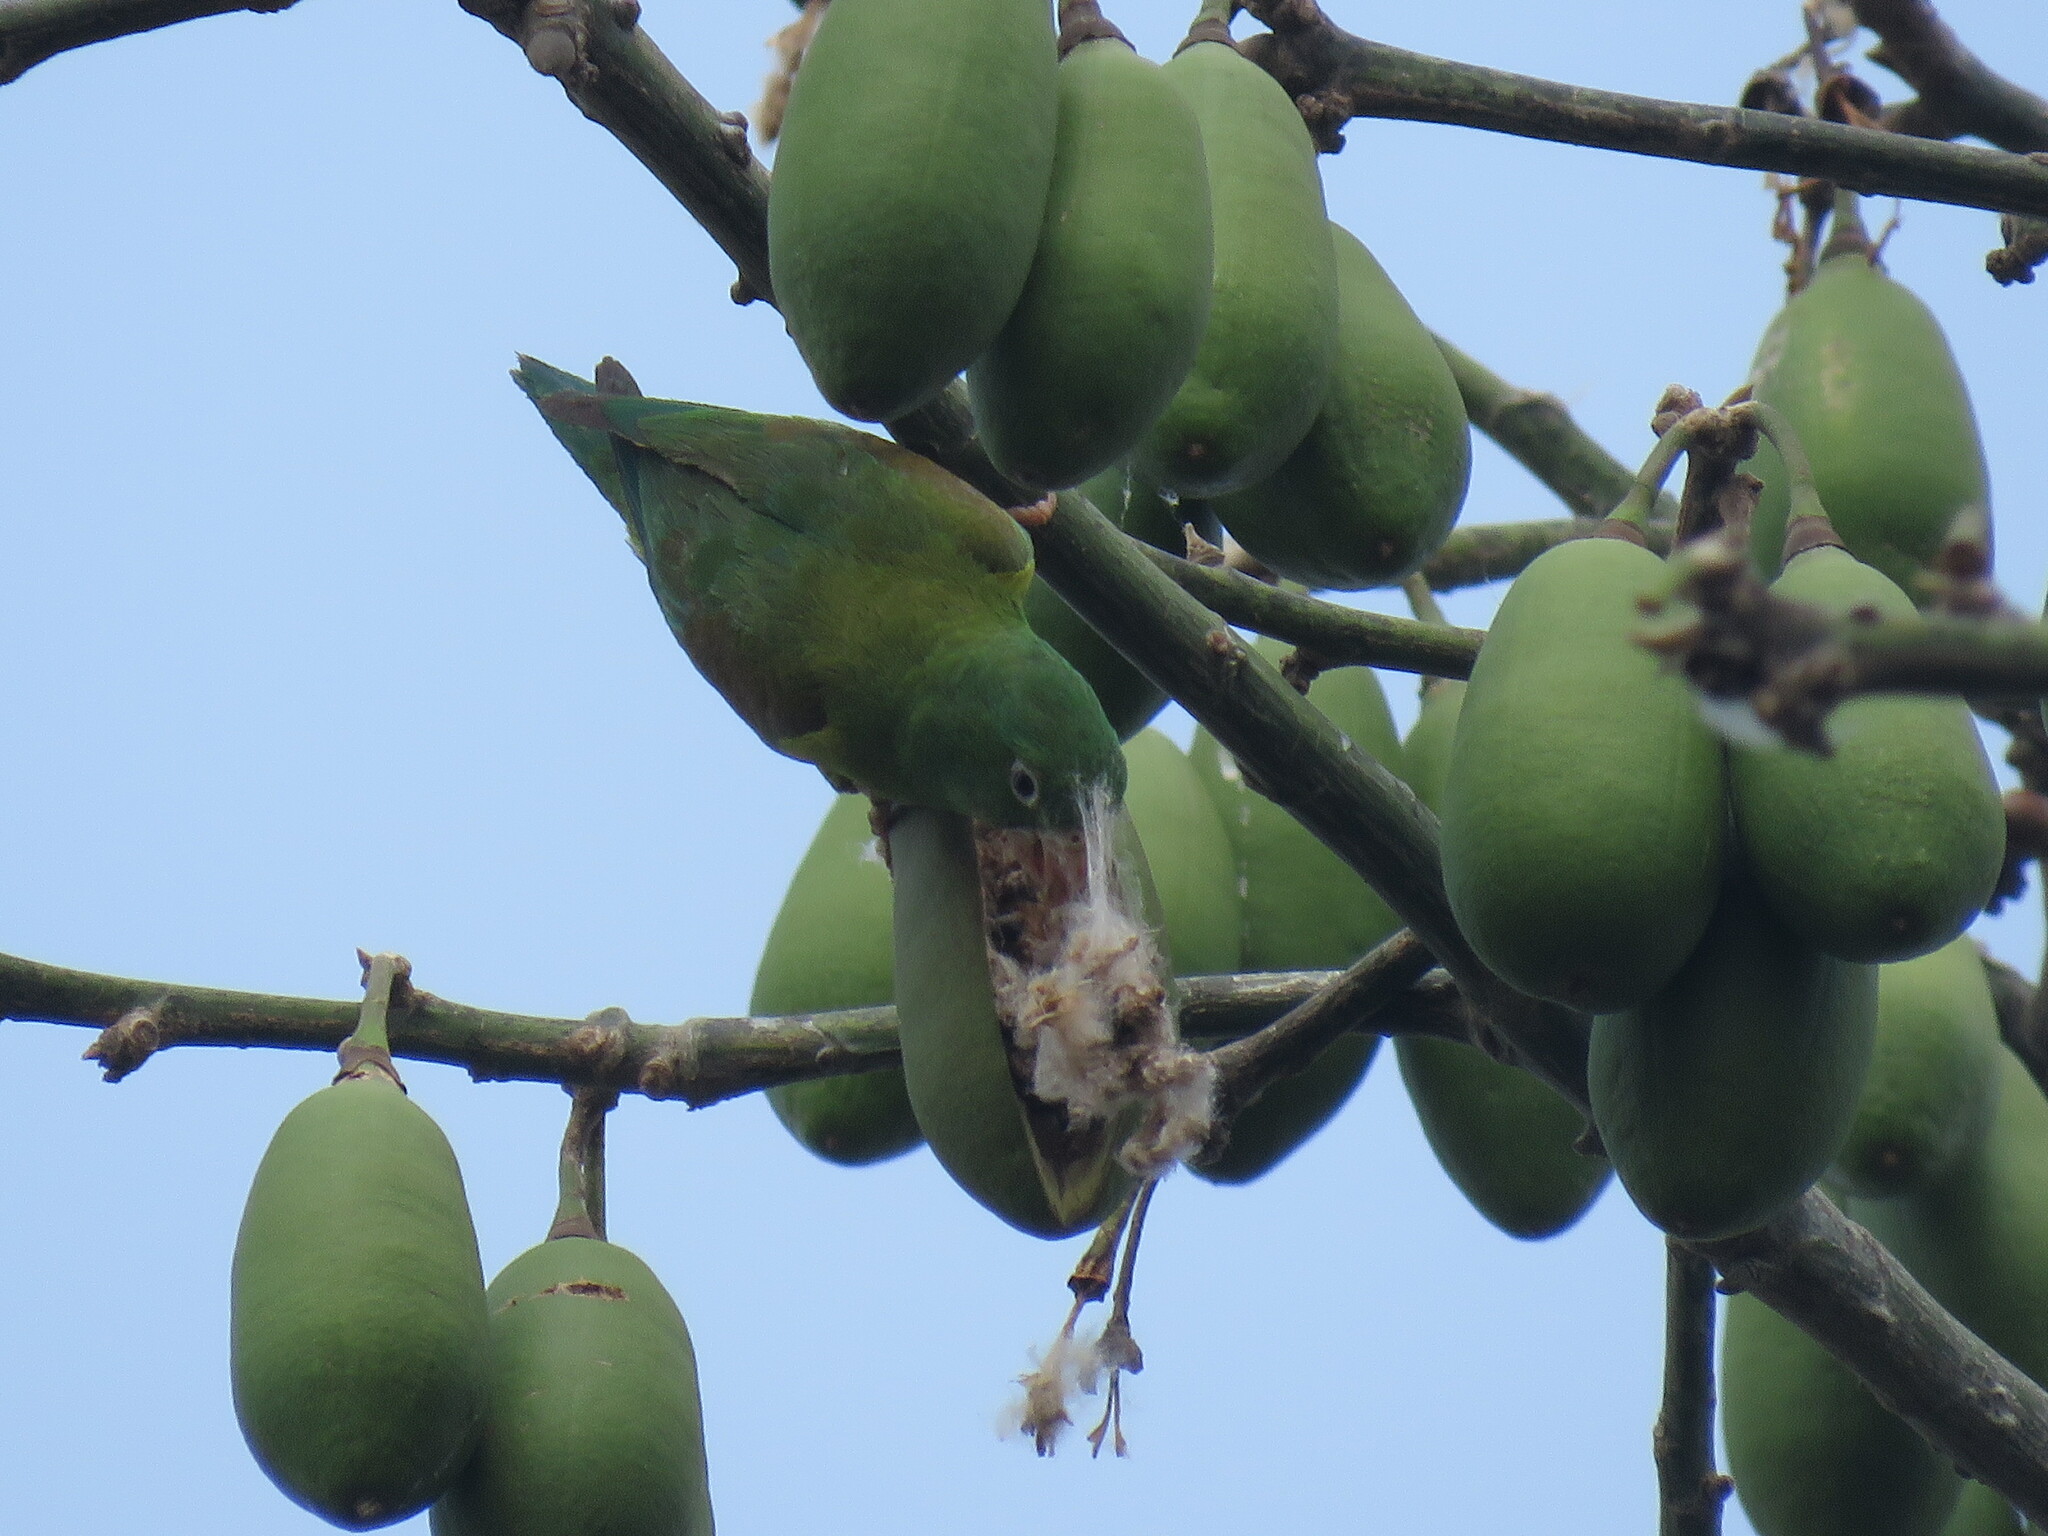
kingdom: Plantae
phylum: Tracheophyta
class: Magnoliopsida
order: Malvales
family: Malvaceae
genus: Ceiba
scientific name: Ceiba pentandra
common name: Kapok
